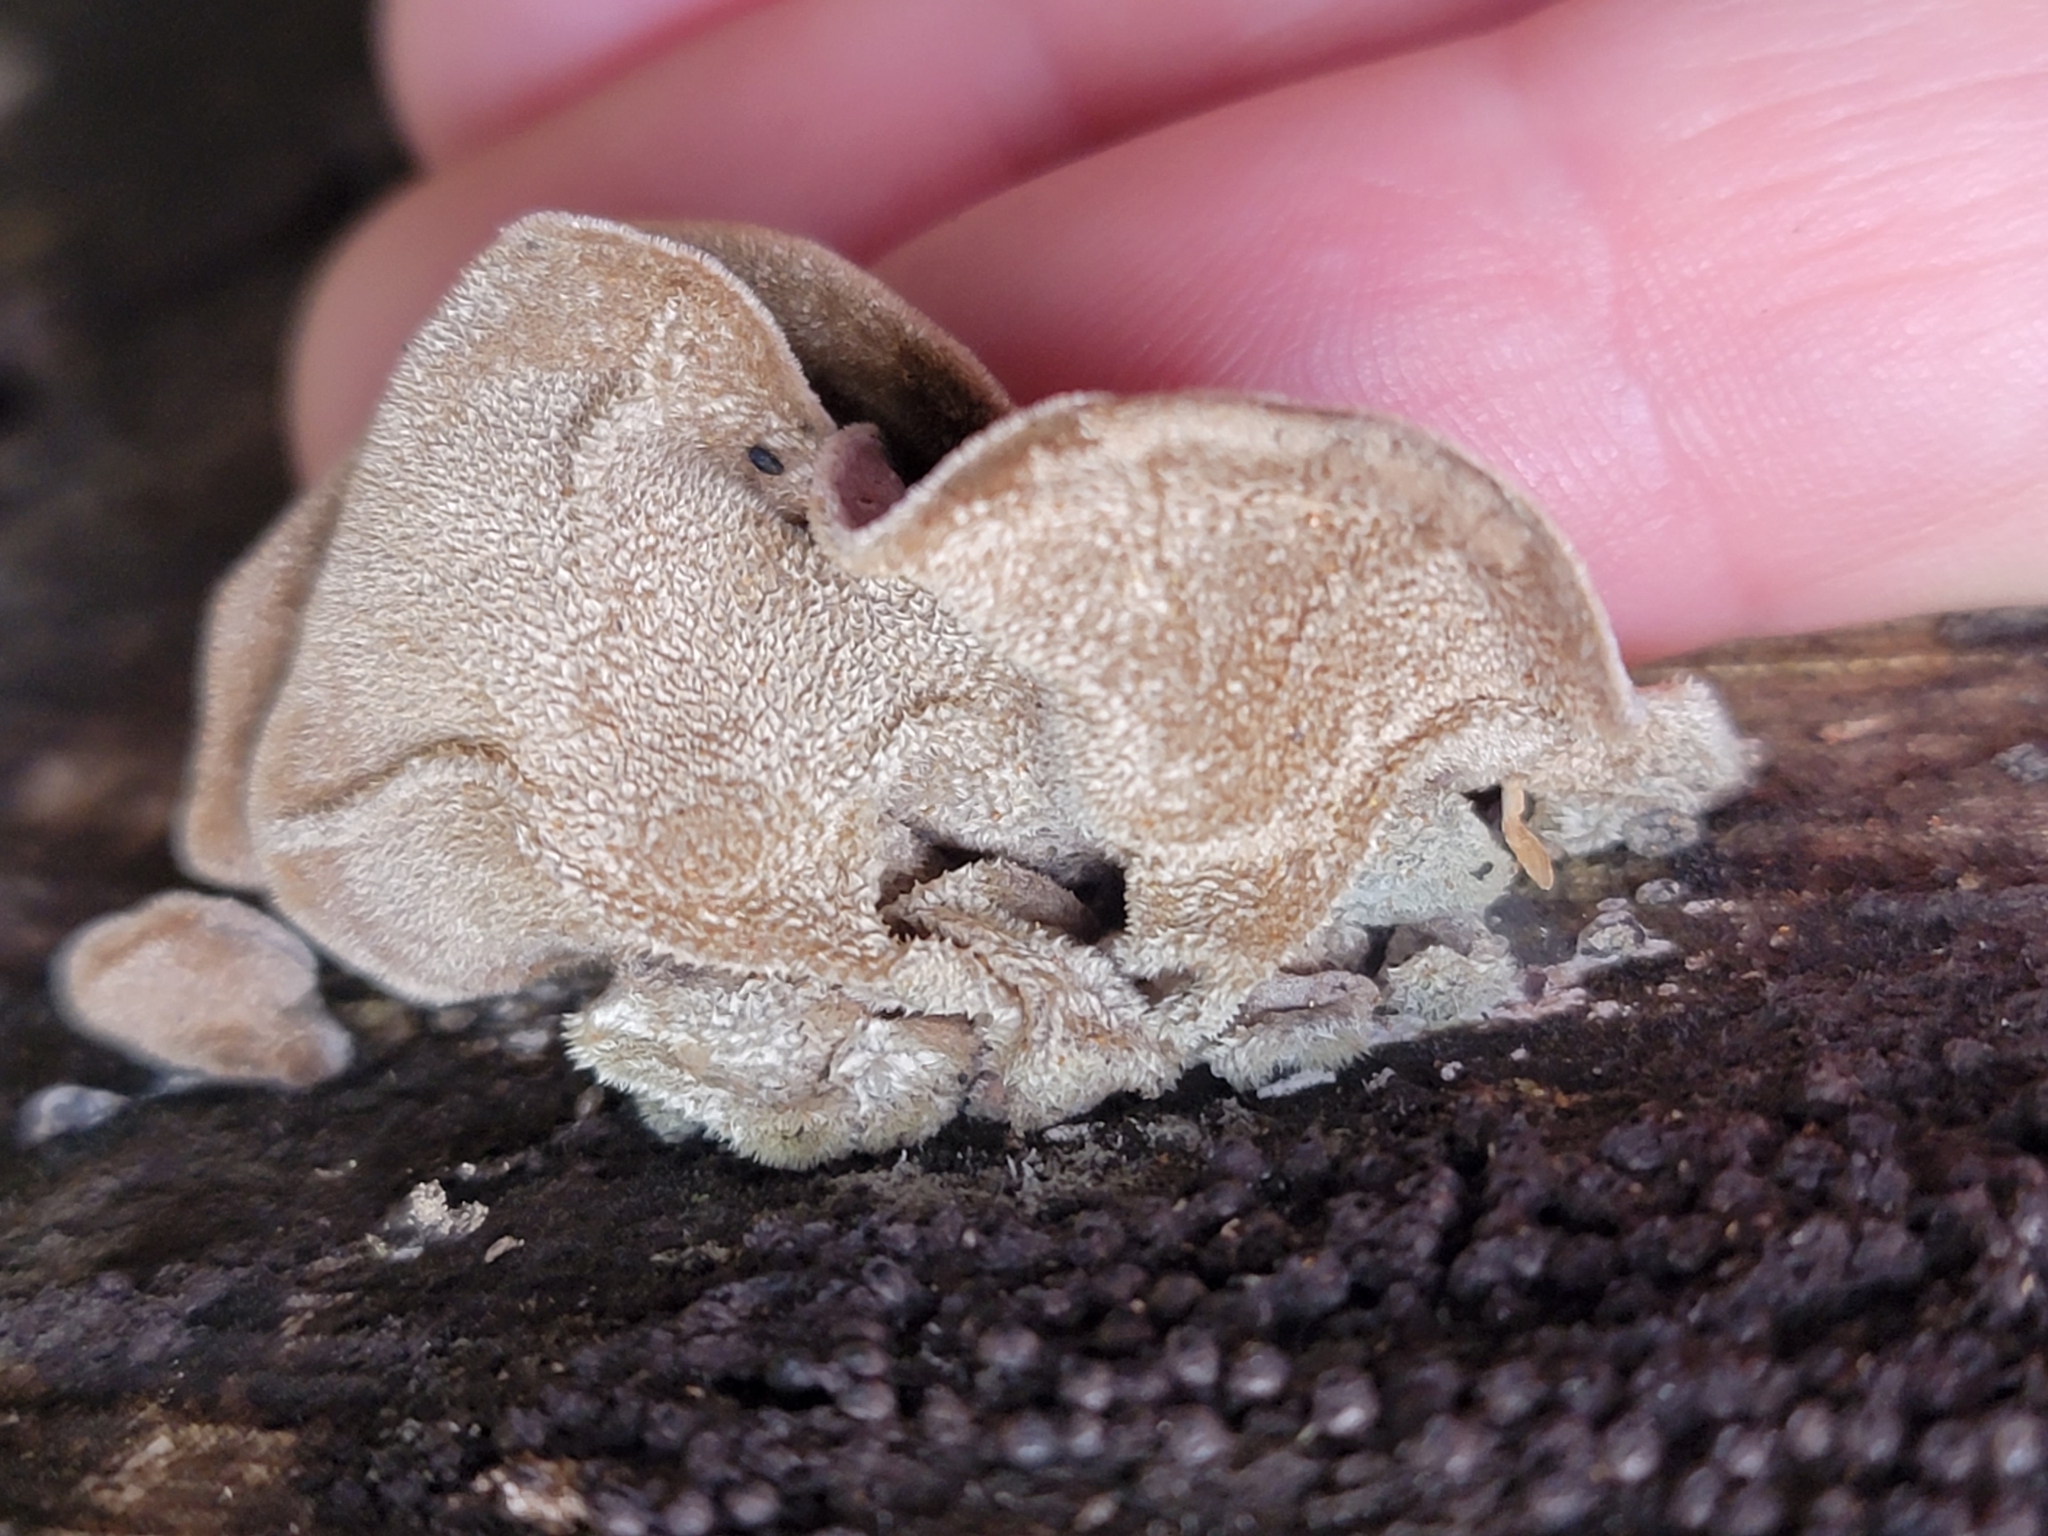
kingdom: Fungi
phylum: Basidiomycota
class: Agaricomycetes
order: Auriculariales
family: Auriculariaceae
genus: Auricularia
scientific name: Auricularia cornea
